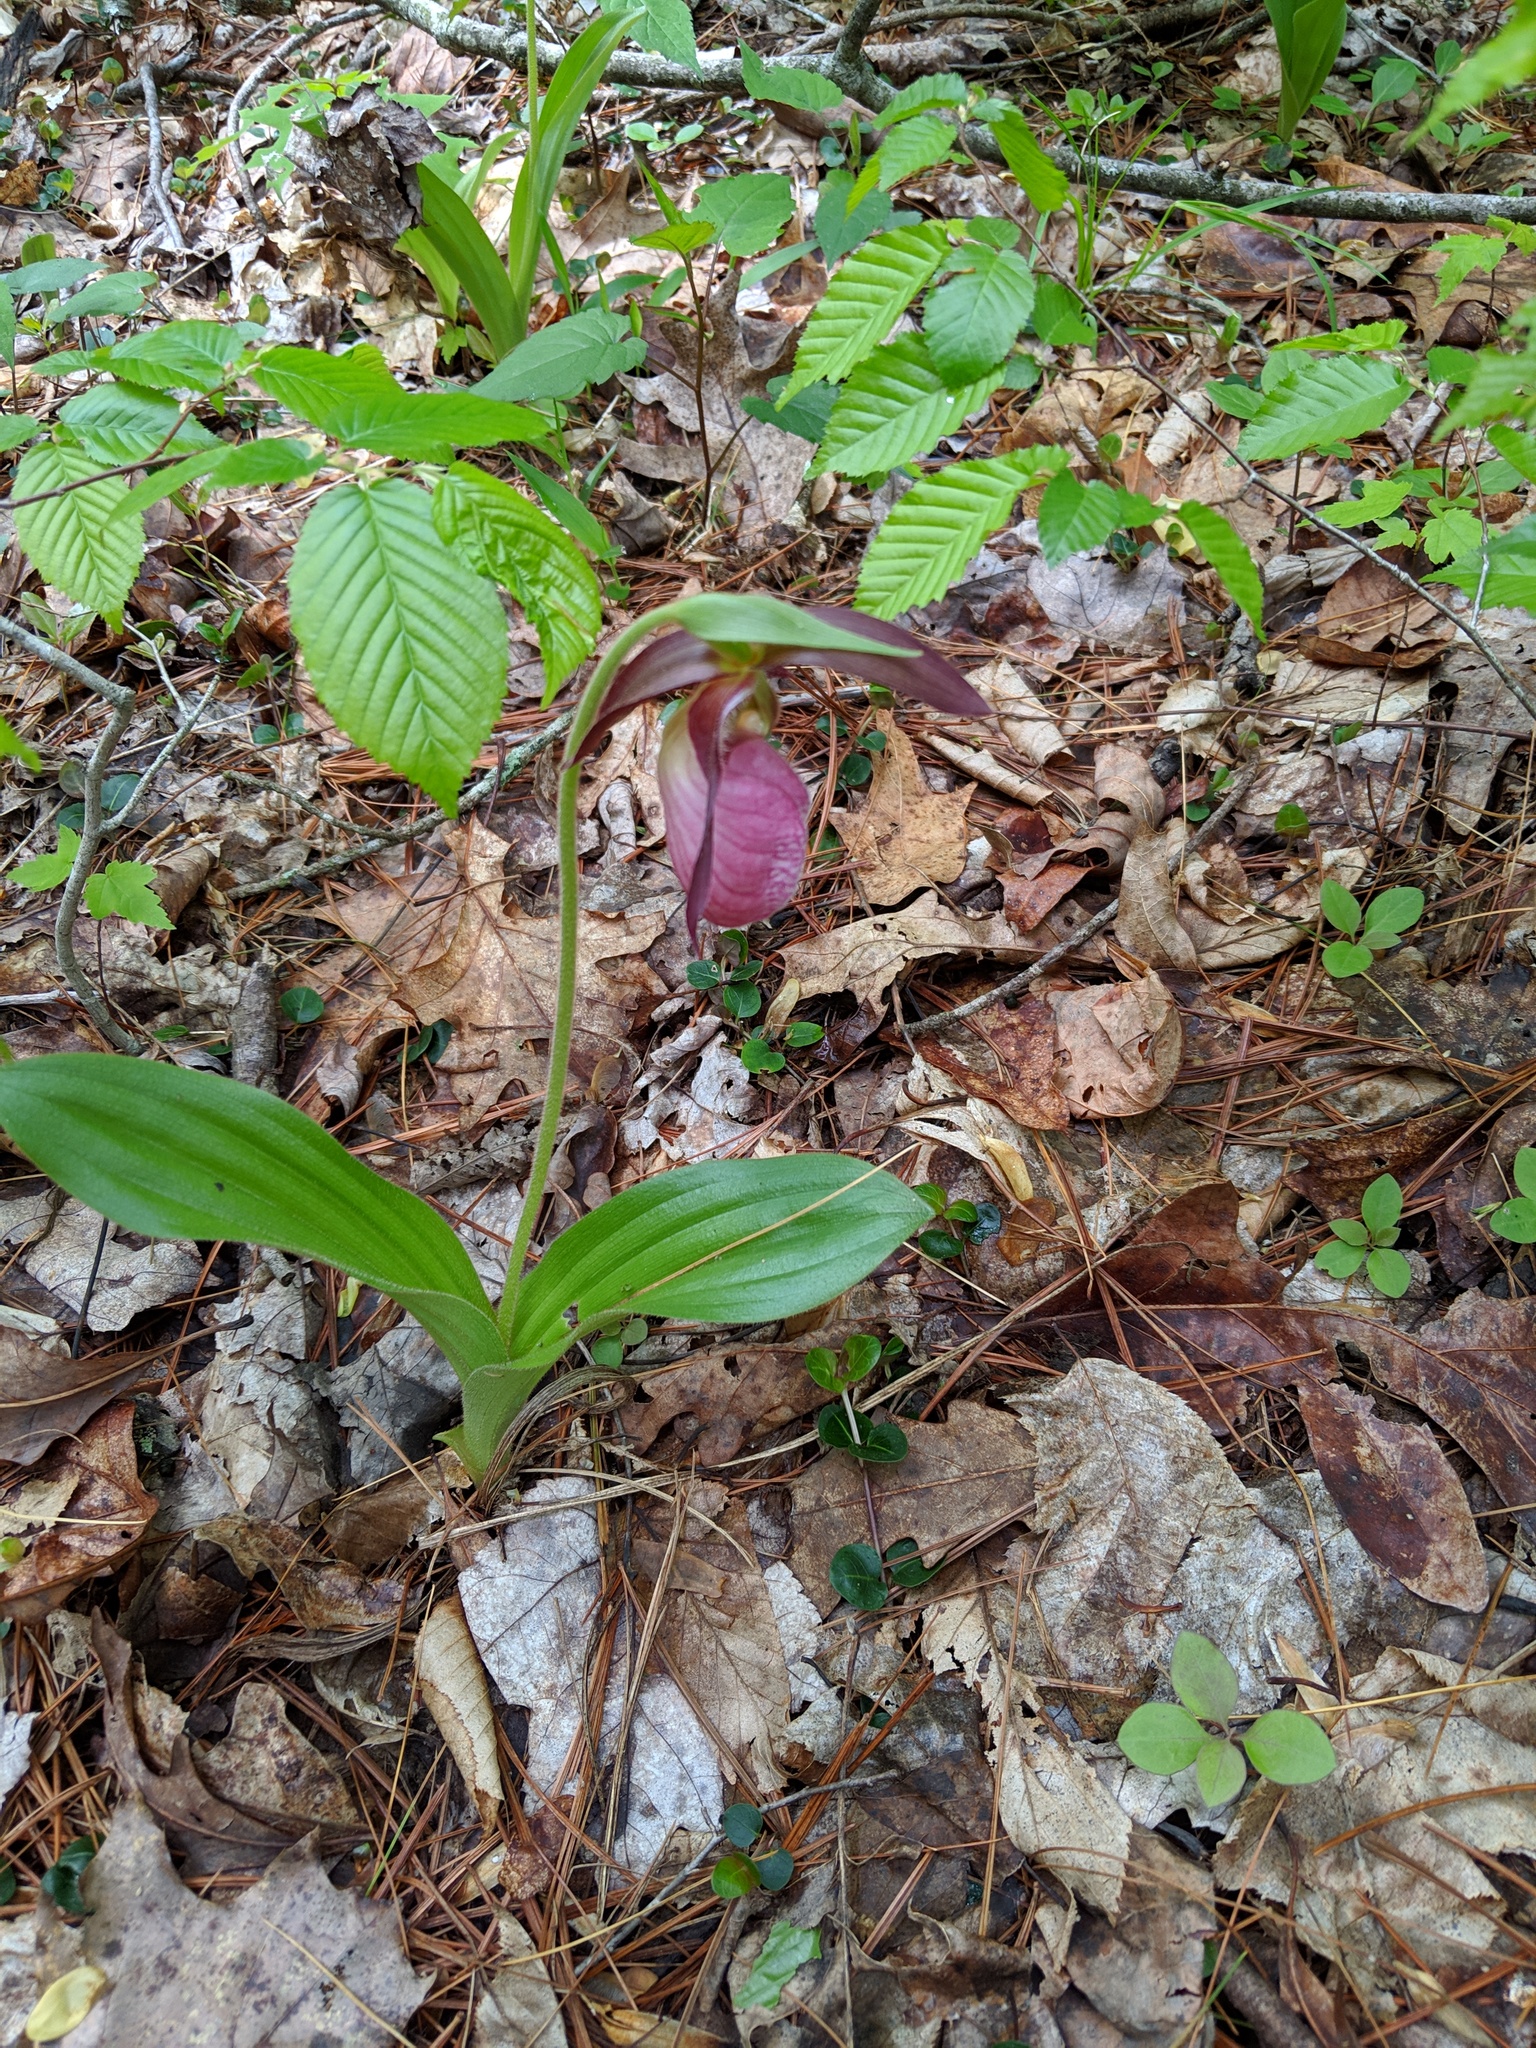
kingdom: Plantae
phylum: Tracheophyta
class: Liliopsida
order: Asparagales
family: Orchidaceae
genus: Cypripedium
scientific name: Cypripedium acaule
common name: Pink lady's-slipper
